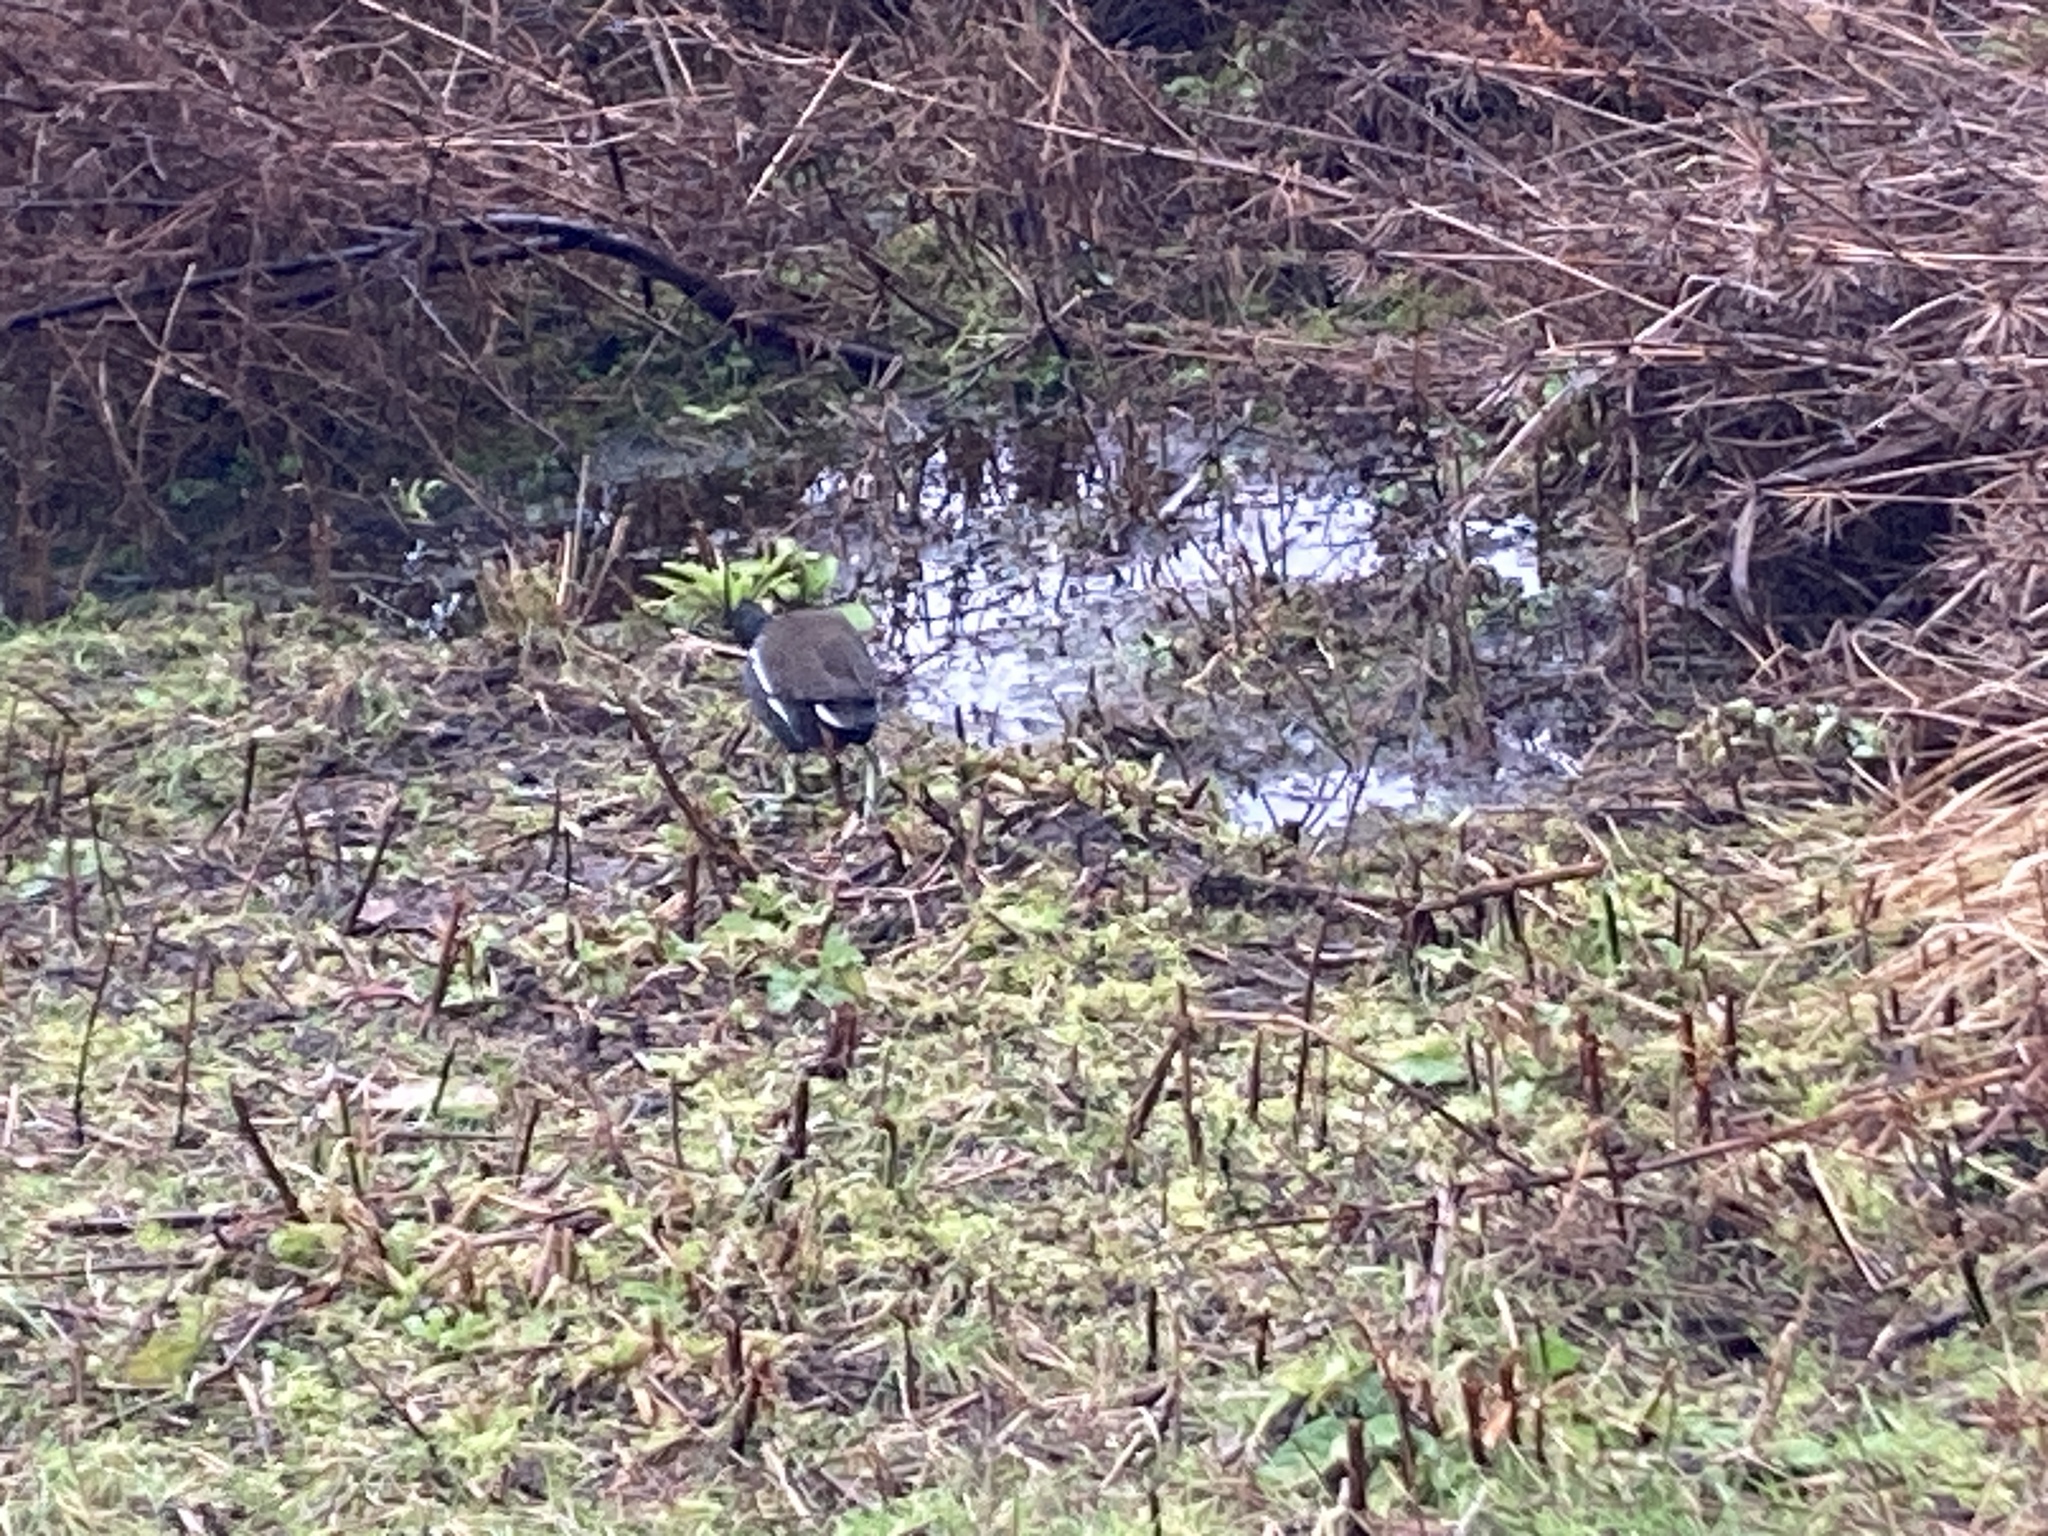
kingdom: Animalia
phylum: Chordata
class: Aves
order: Gruiformes
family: Rallidae
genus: Gallinula
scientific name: Gallinula chloropus
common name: Common moorhen
